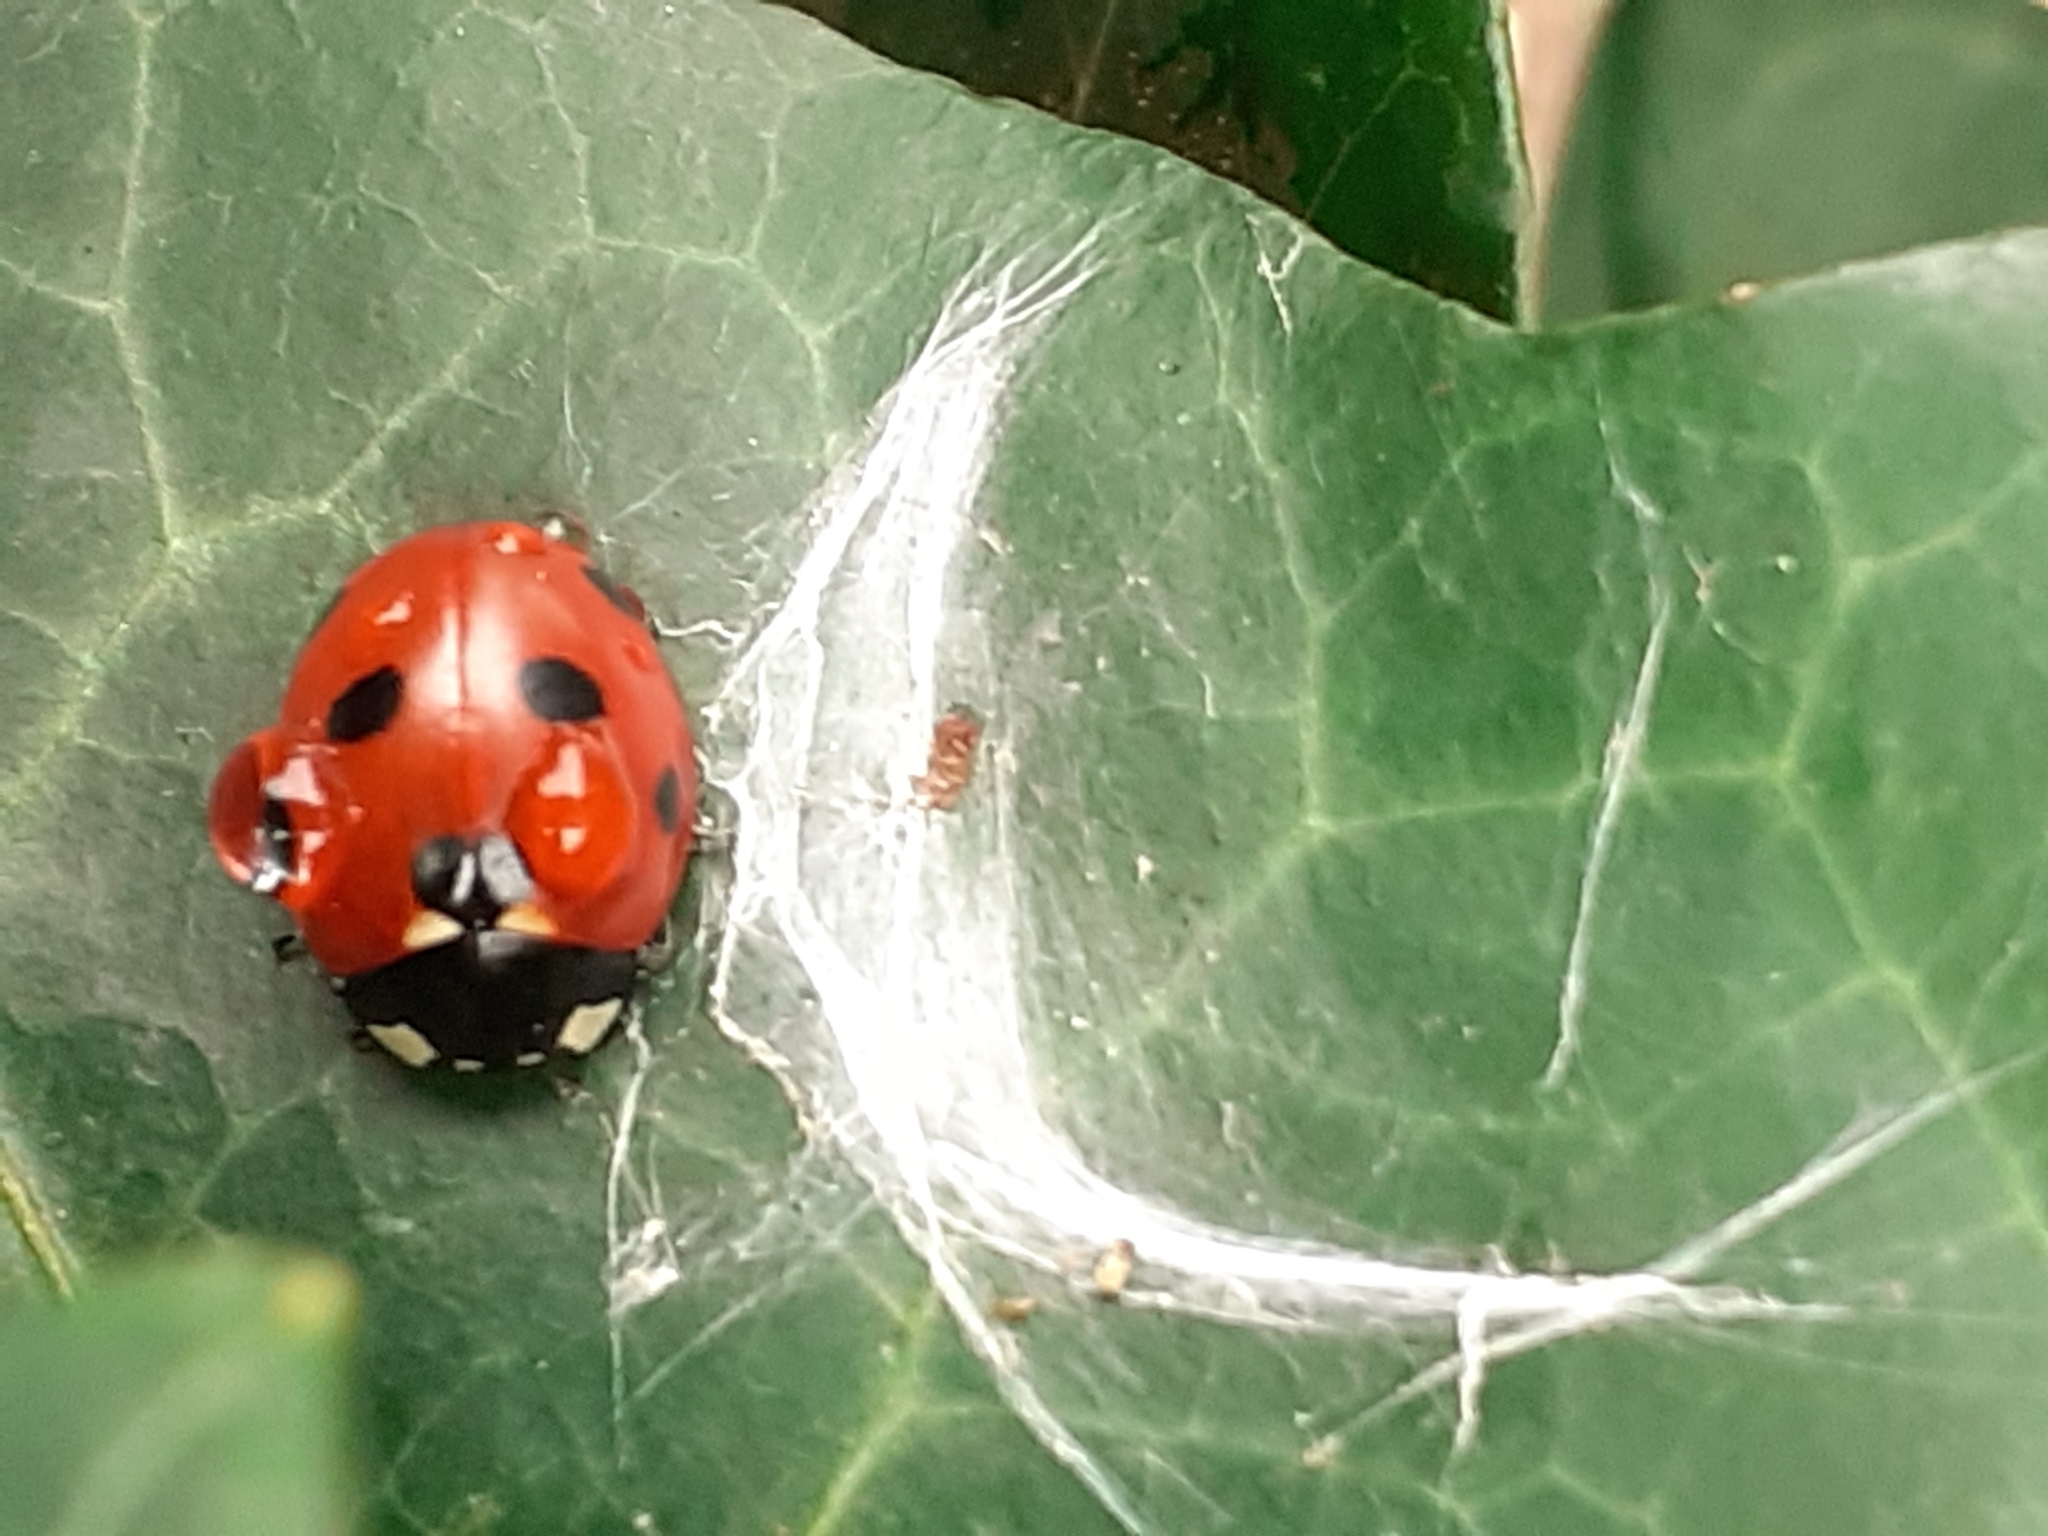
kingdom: Animalia
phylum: Arthropoda
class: Insecta
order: Coleoptera
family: Coccinellidae
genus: Coccinella
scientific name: Coccinella septempunctata
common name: Sevenspotted lady beetle
